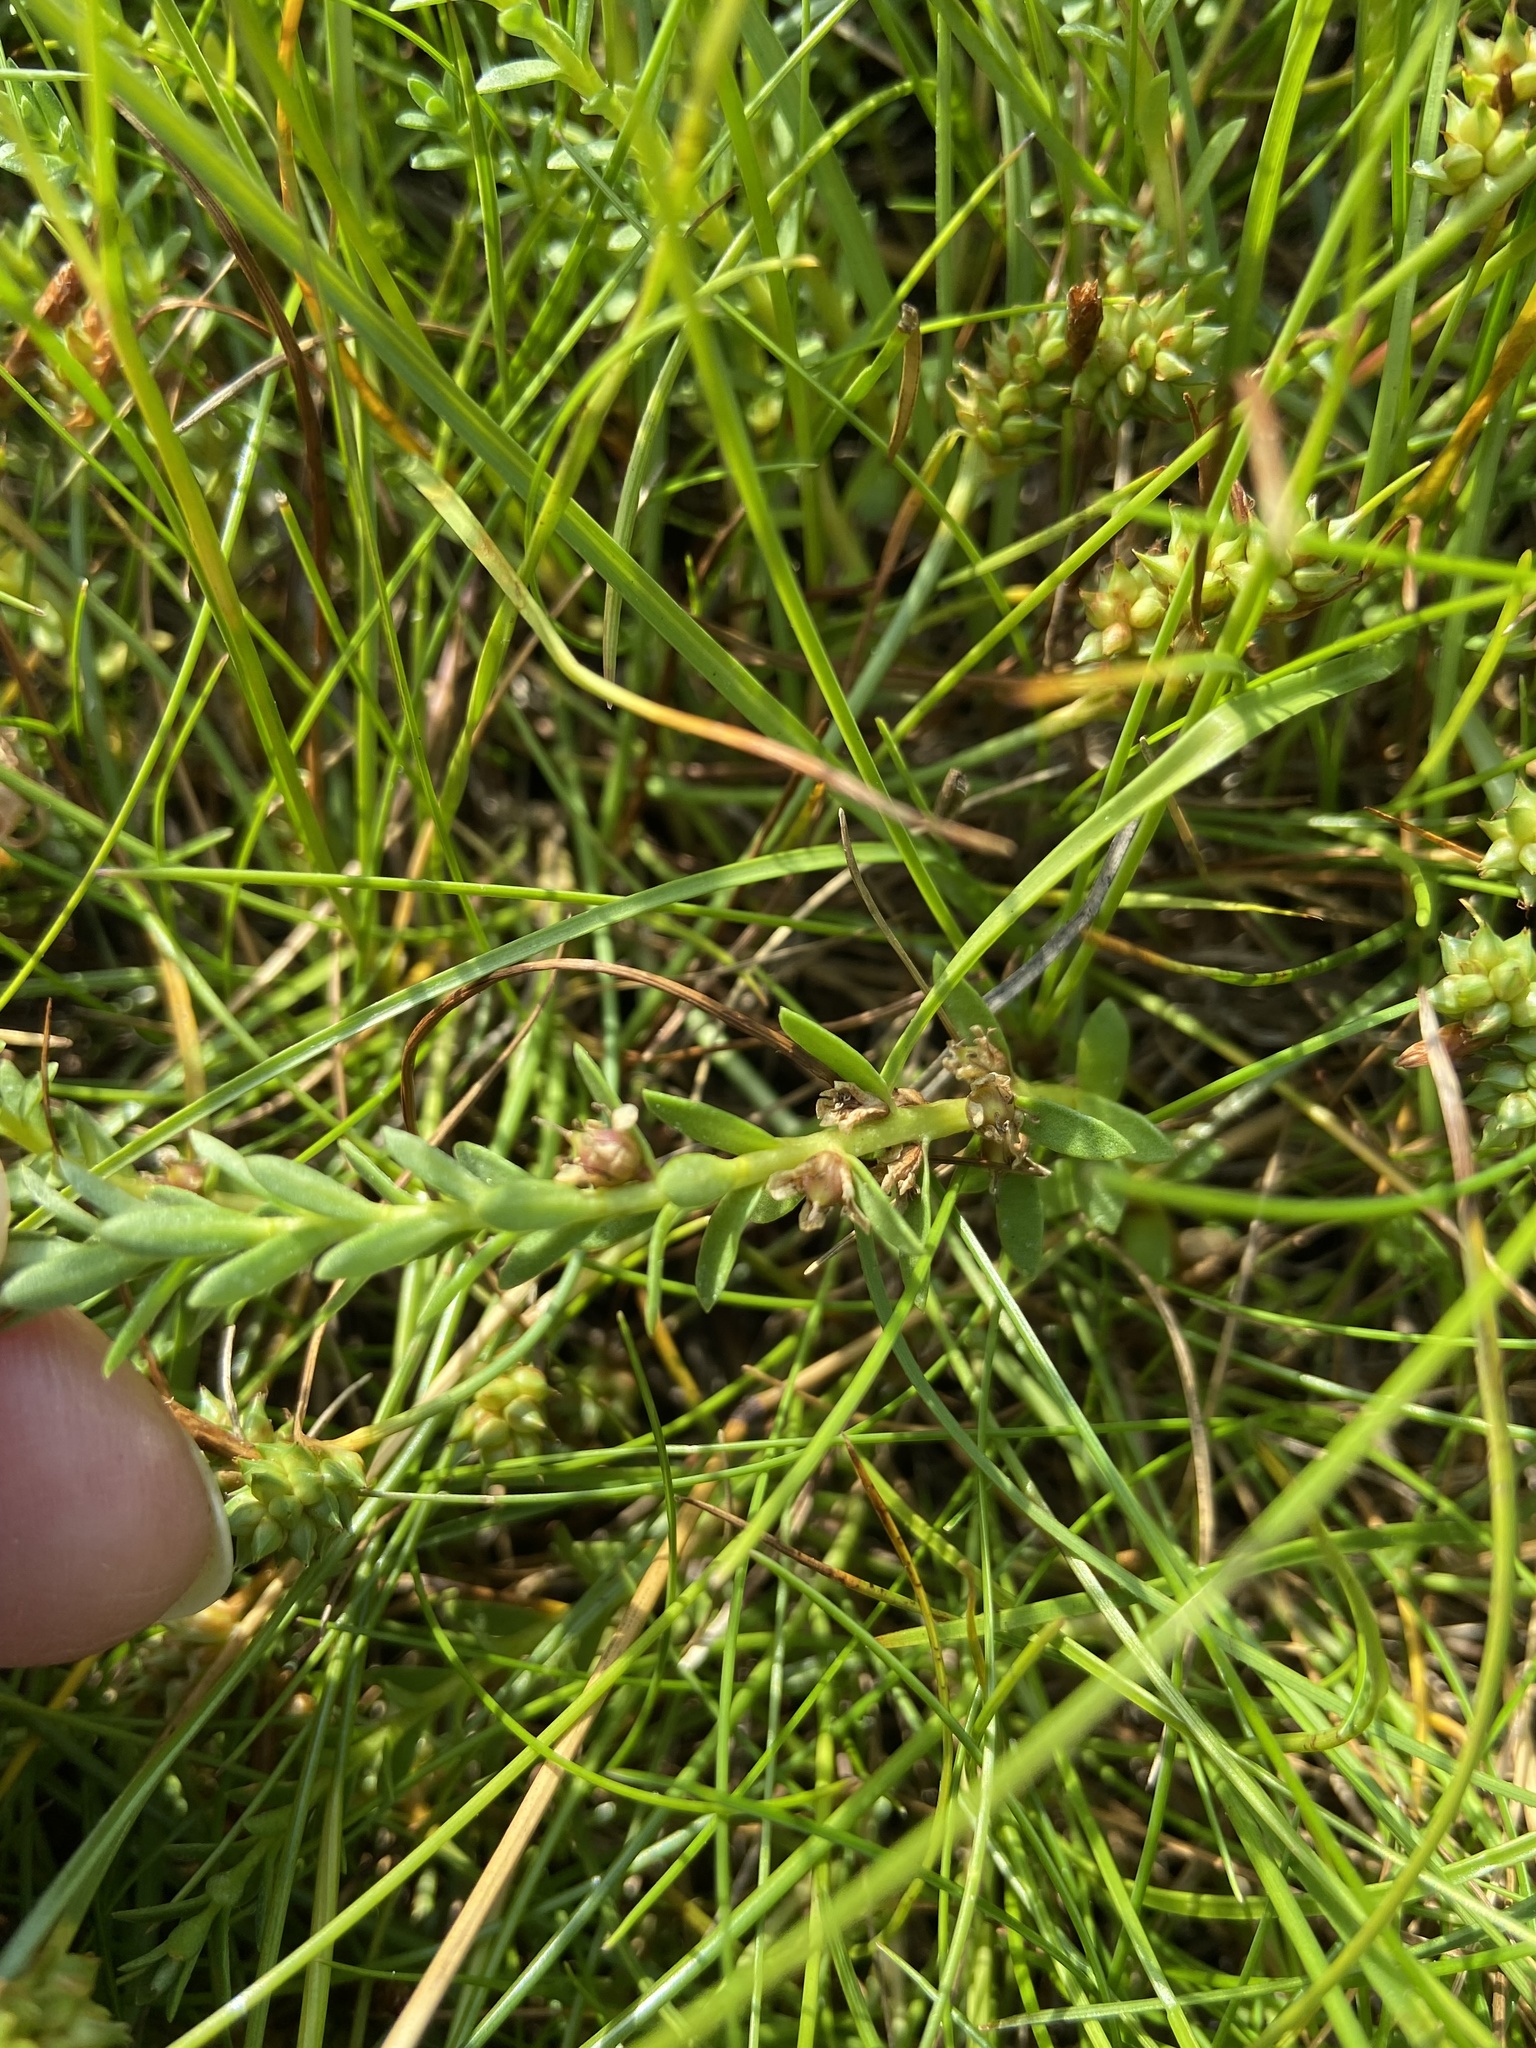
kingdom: Plantae
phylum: Tracheophyta
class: Magnoliopsida
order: Ericales
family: Primulaceae
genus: Lysimachia
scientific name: Lysimachia maritima
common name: Sea milkwort
